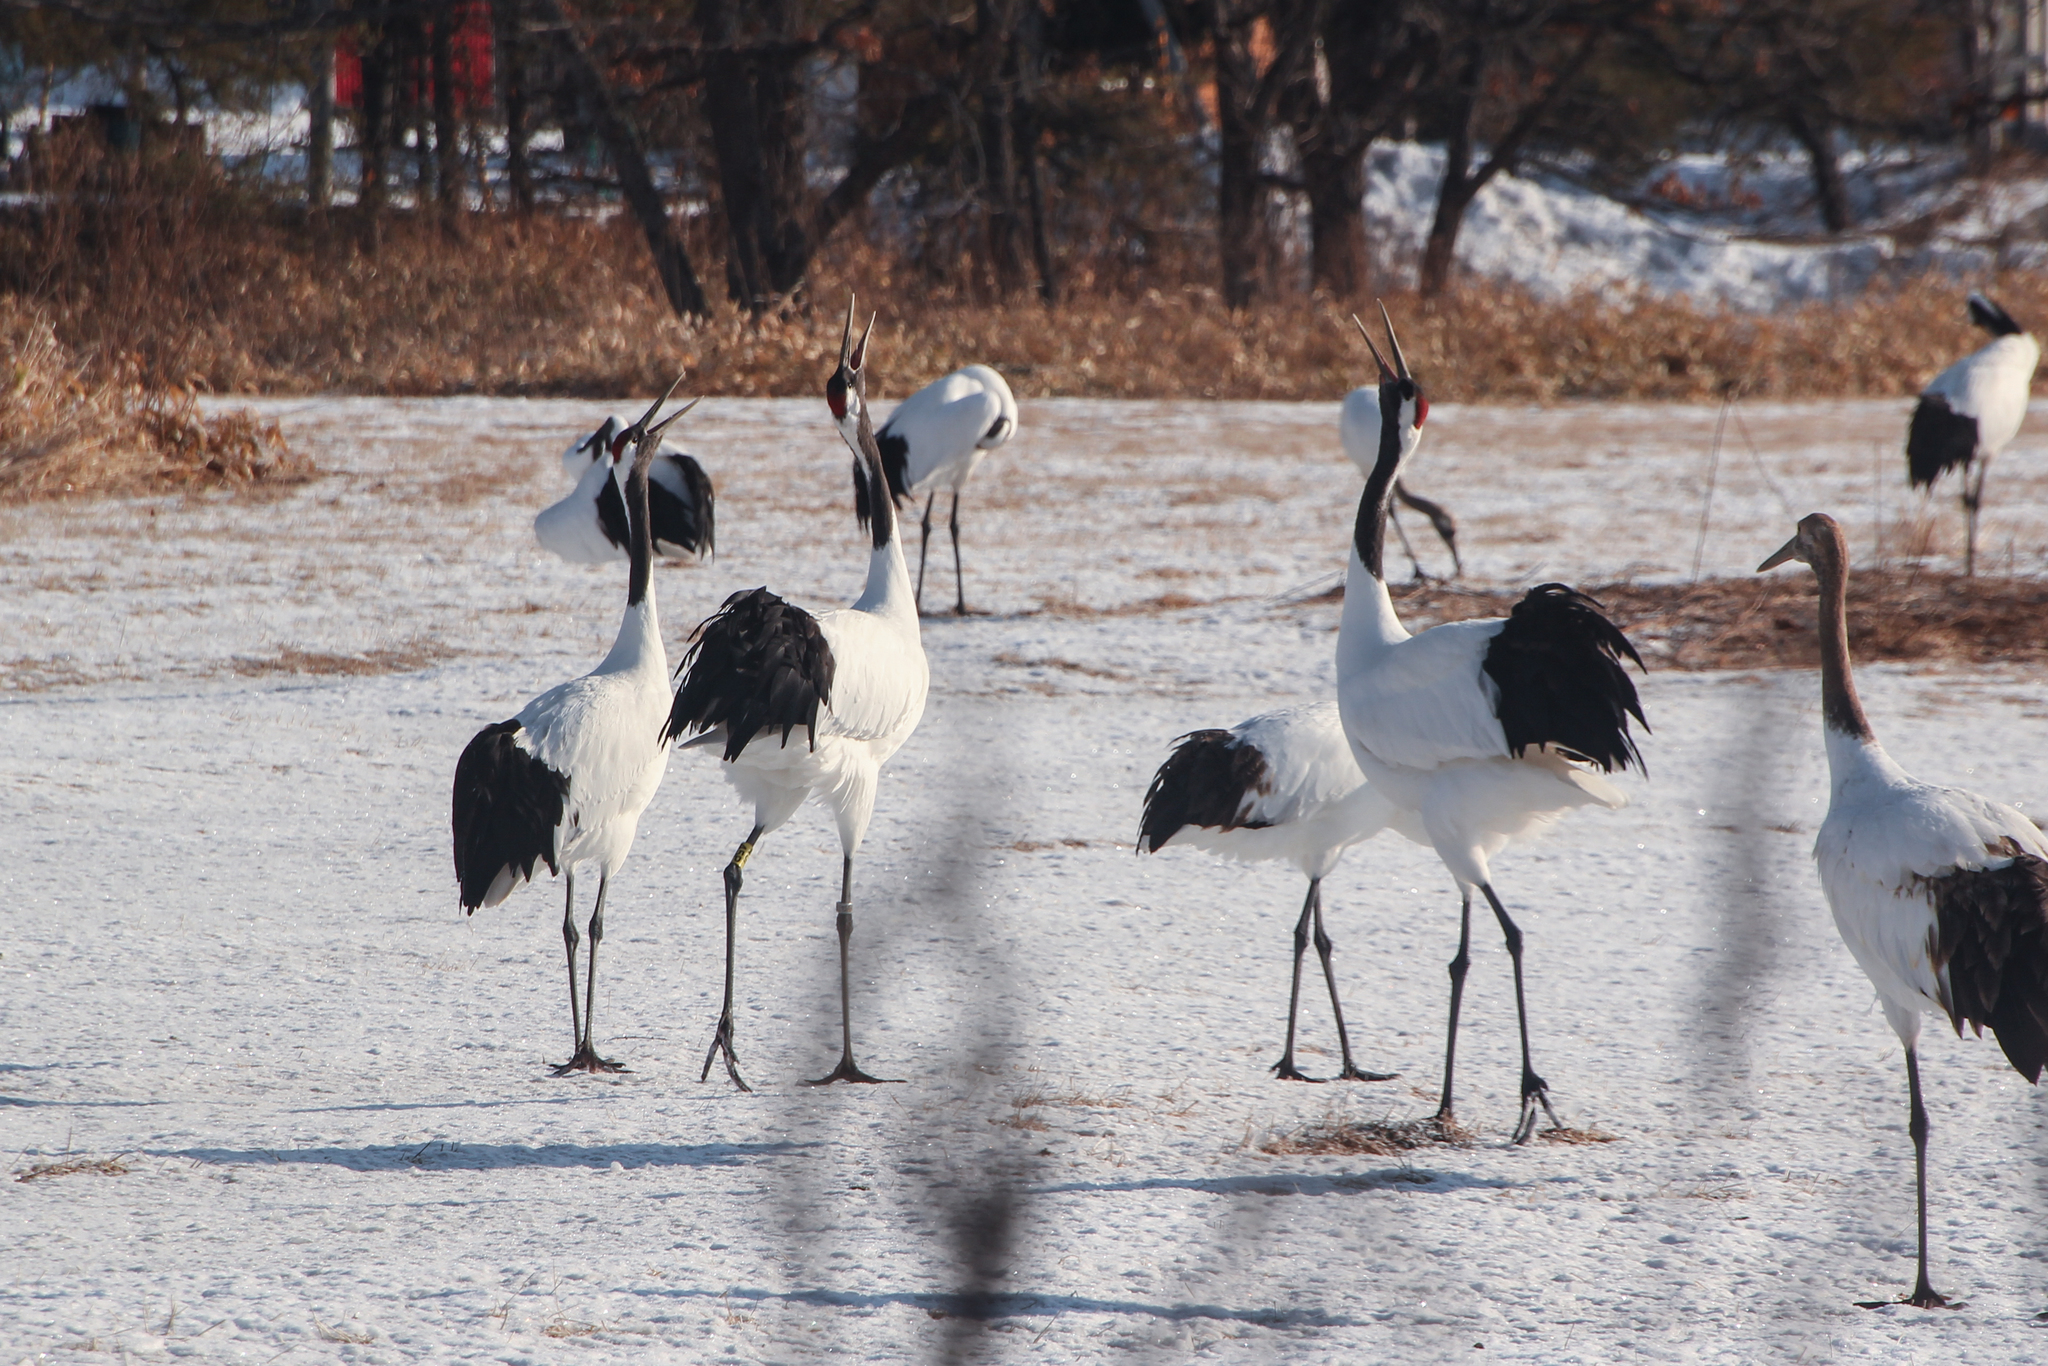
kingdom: Animalia
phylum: Chordata
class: Aves
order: Gruiformes
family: Gruidae
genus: Grus
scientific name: Grus japonensis
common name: Red-crowned crane
